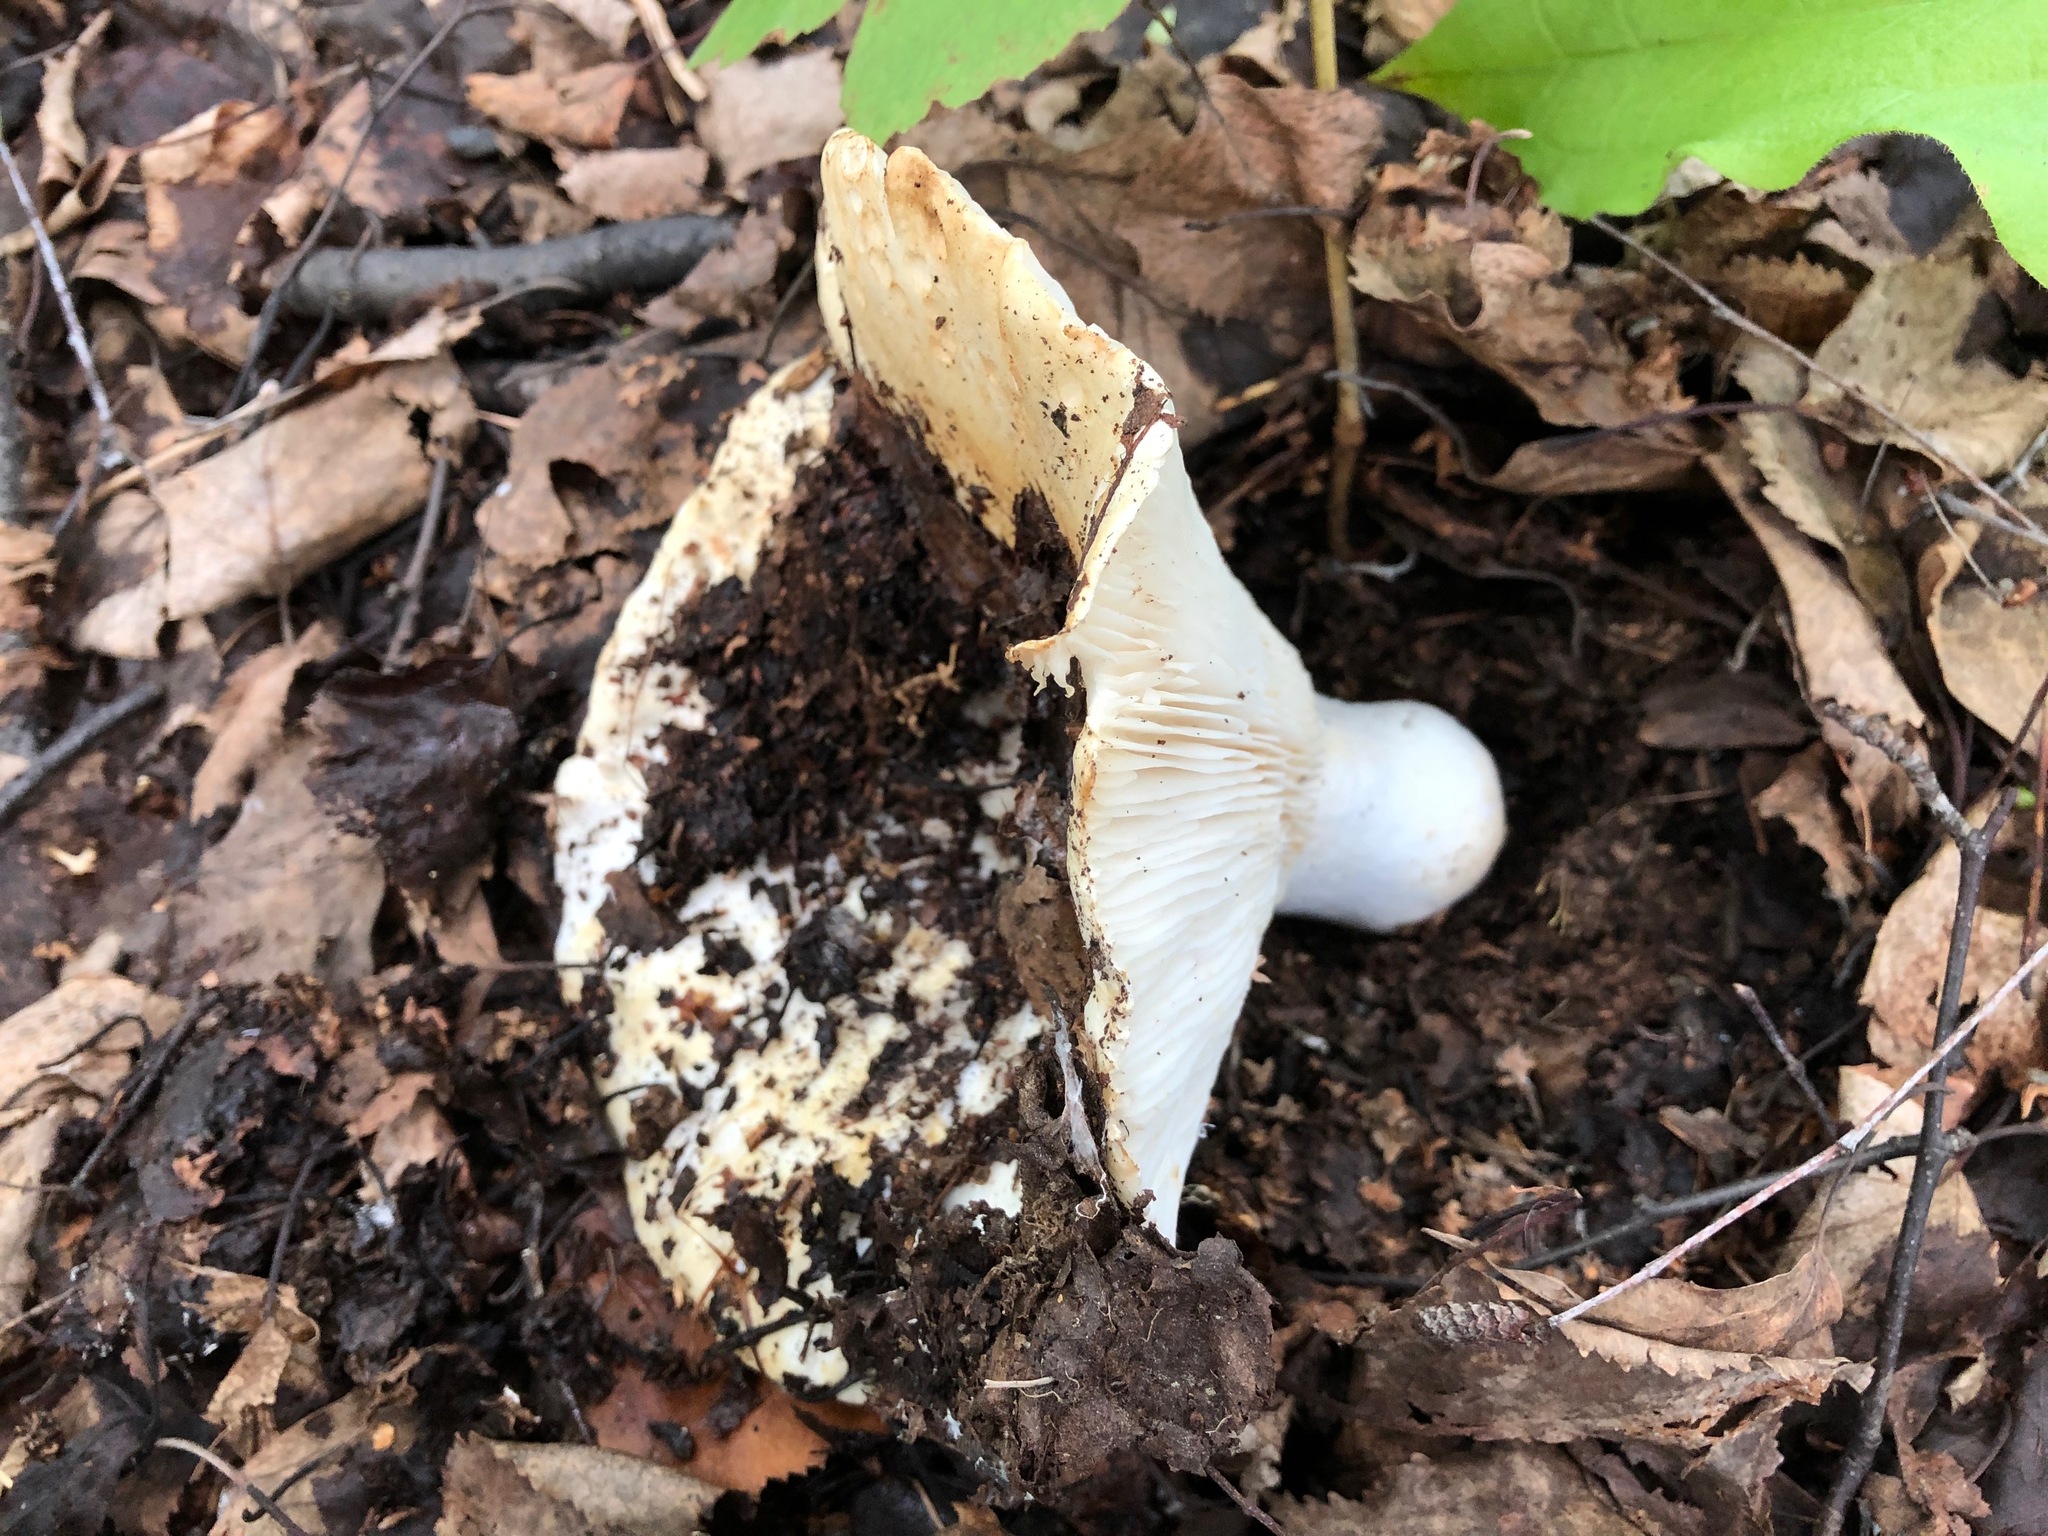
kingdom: Fungi
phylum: Basidiomycota
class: Agaricomycetes
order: Russulales
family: Russulaceae
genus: Russula
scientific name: Russula brevipes
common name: Short-stemmed russula
